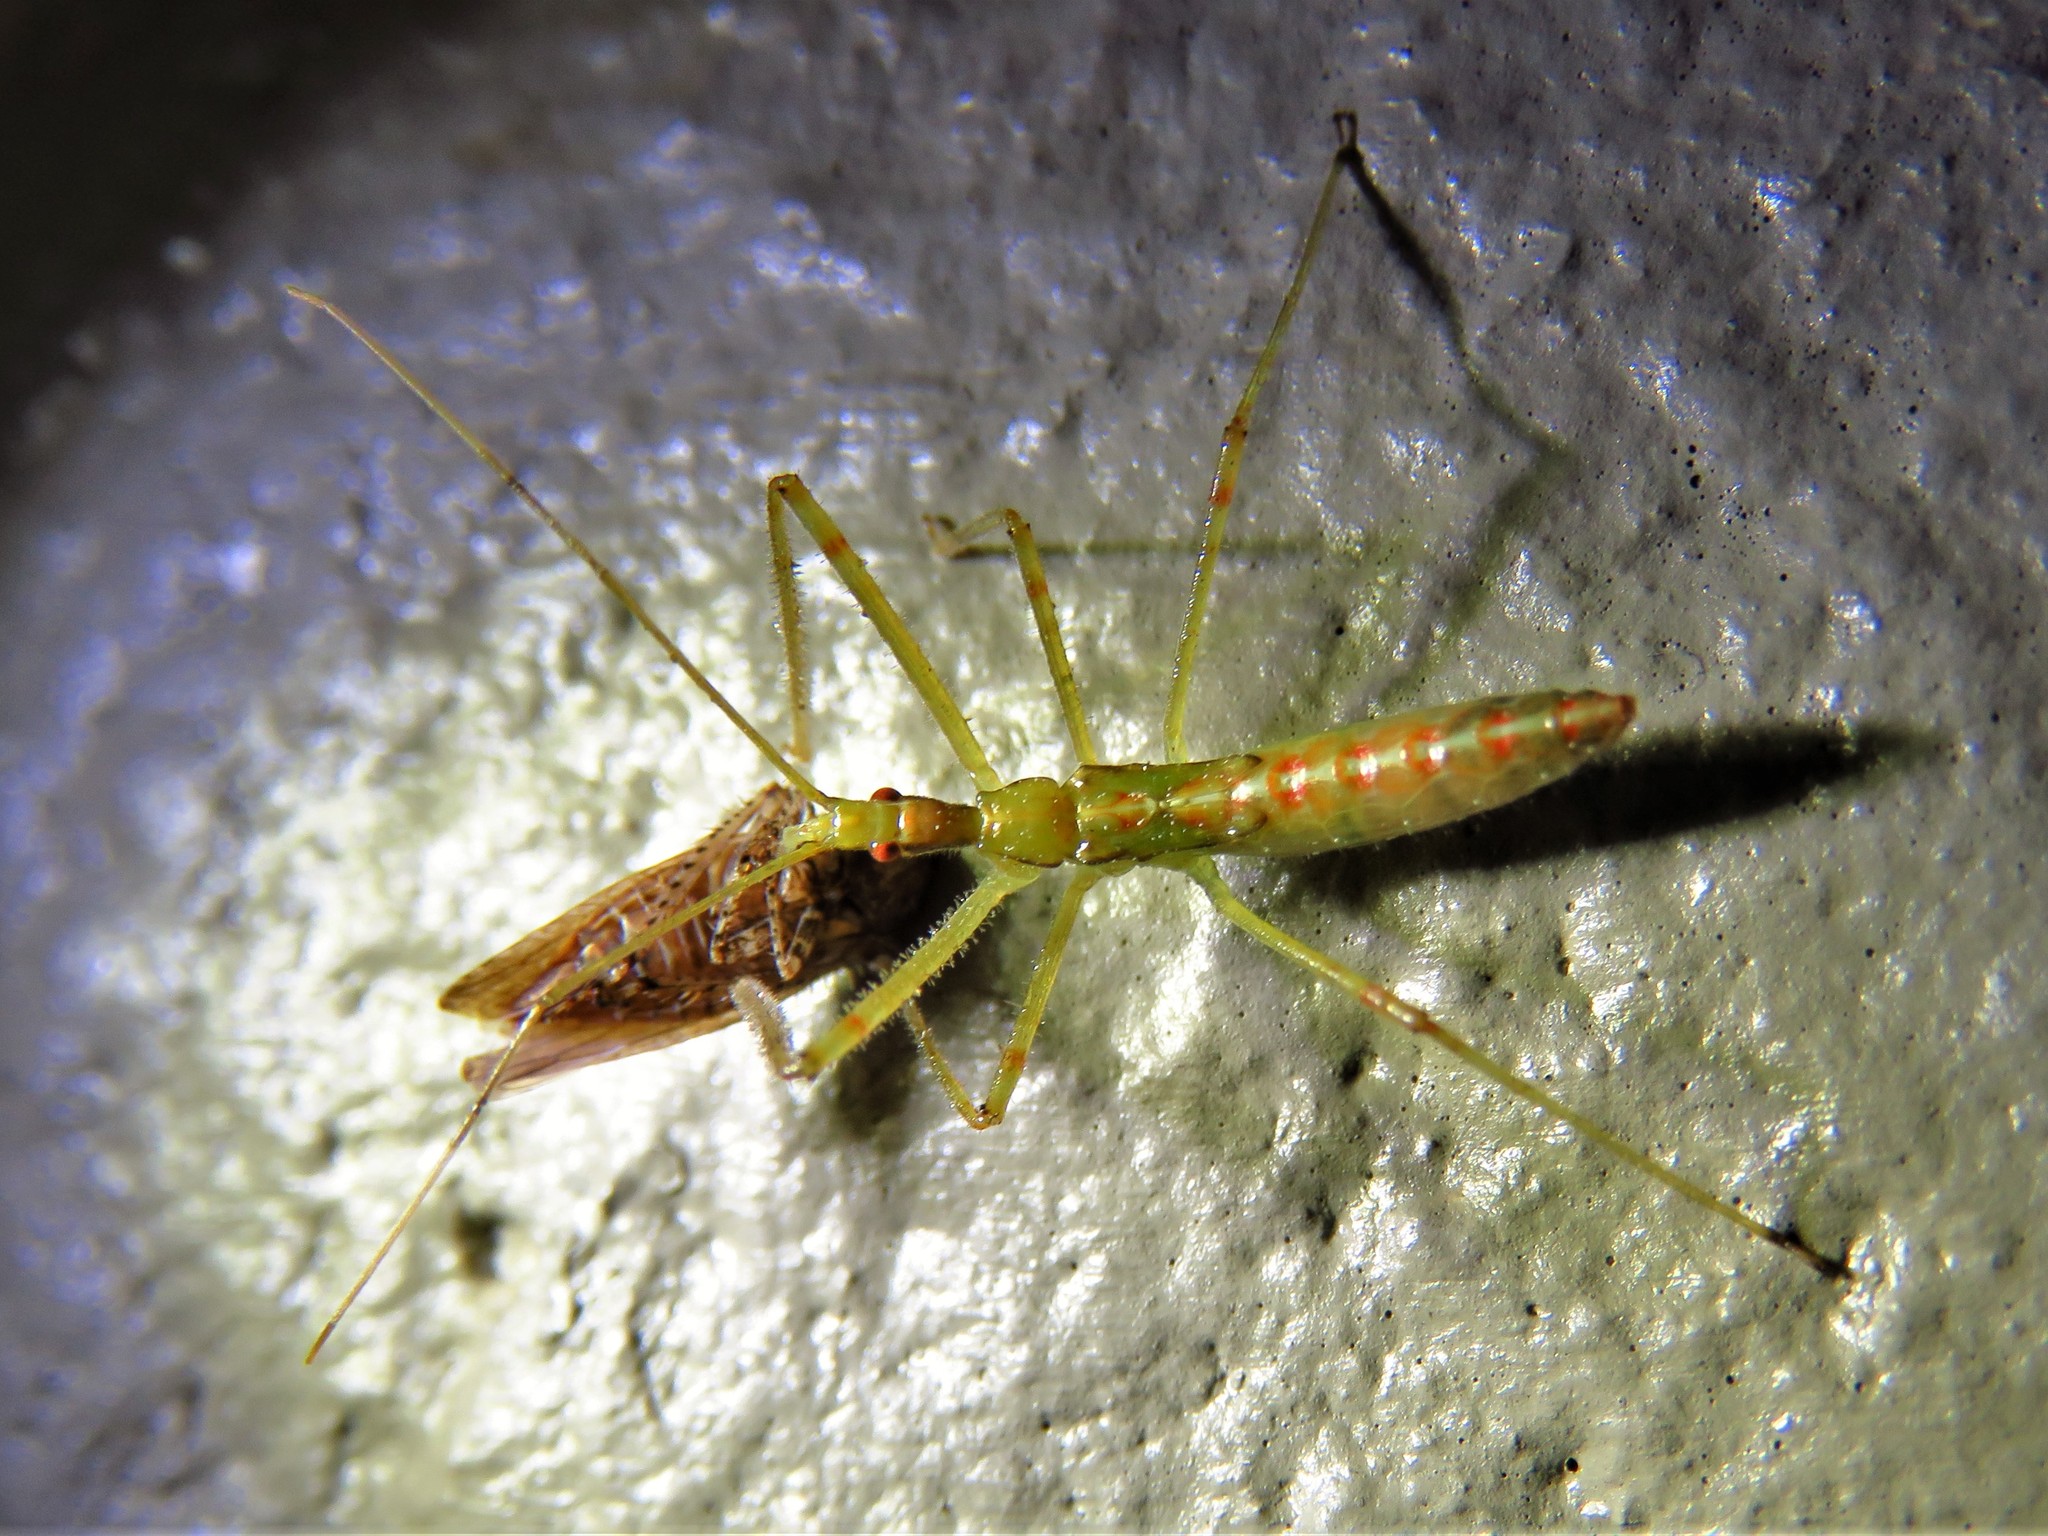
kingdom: Animalia
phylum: Arthropoda
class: Insecta
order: Hemiptera
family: Reduviidae
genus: Zelus
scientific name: Zelus luridus
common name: Pale green assassin bug
